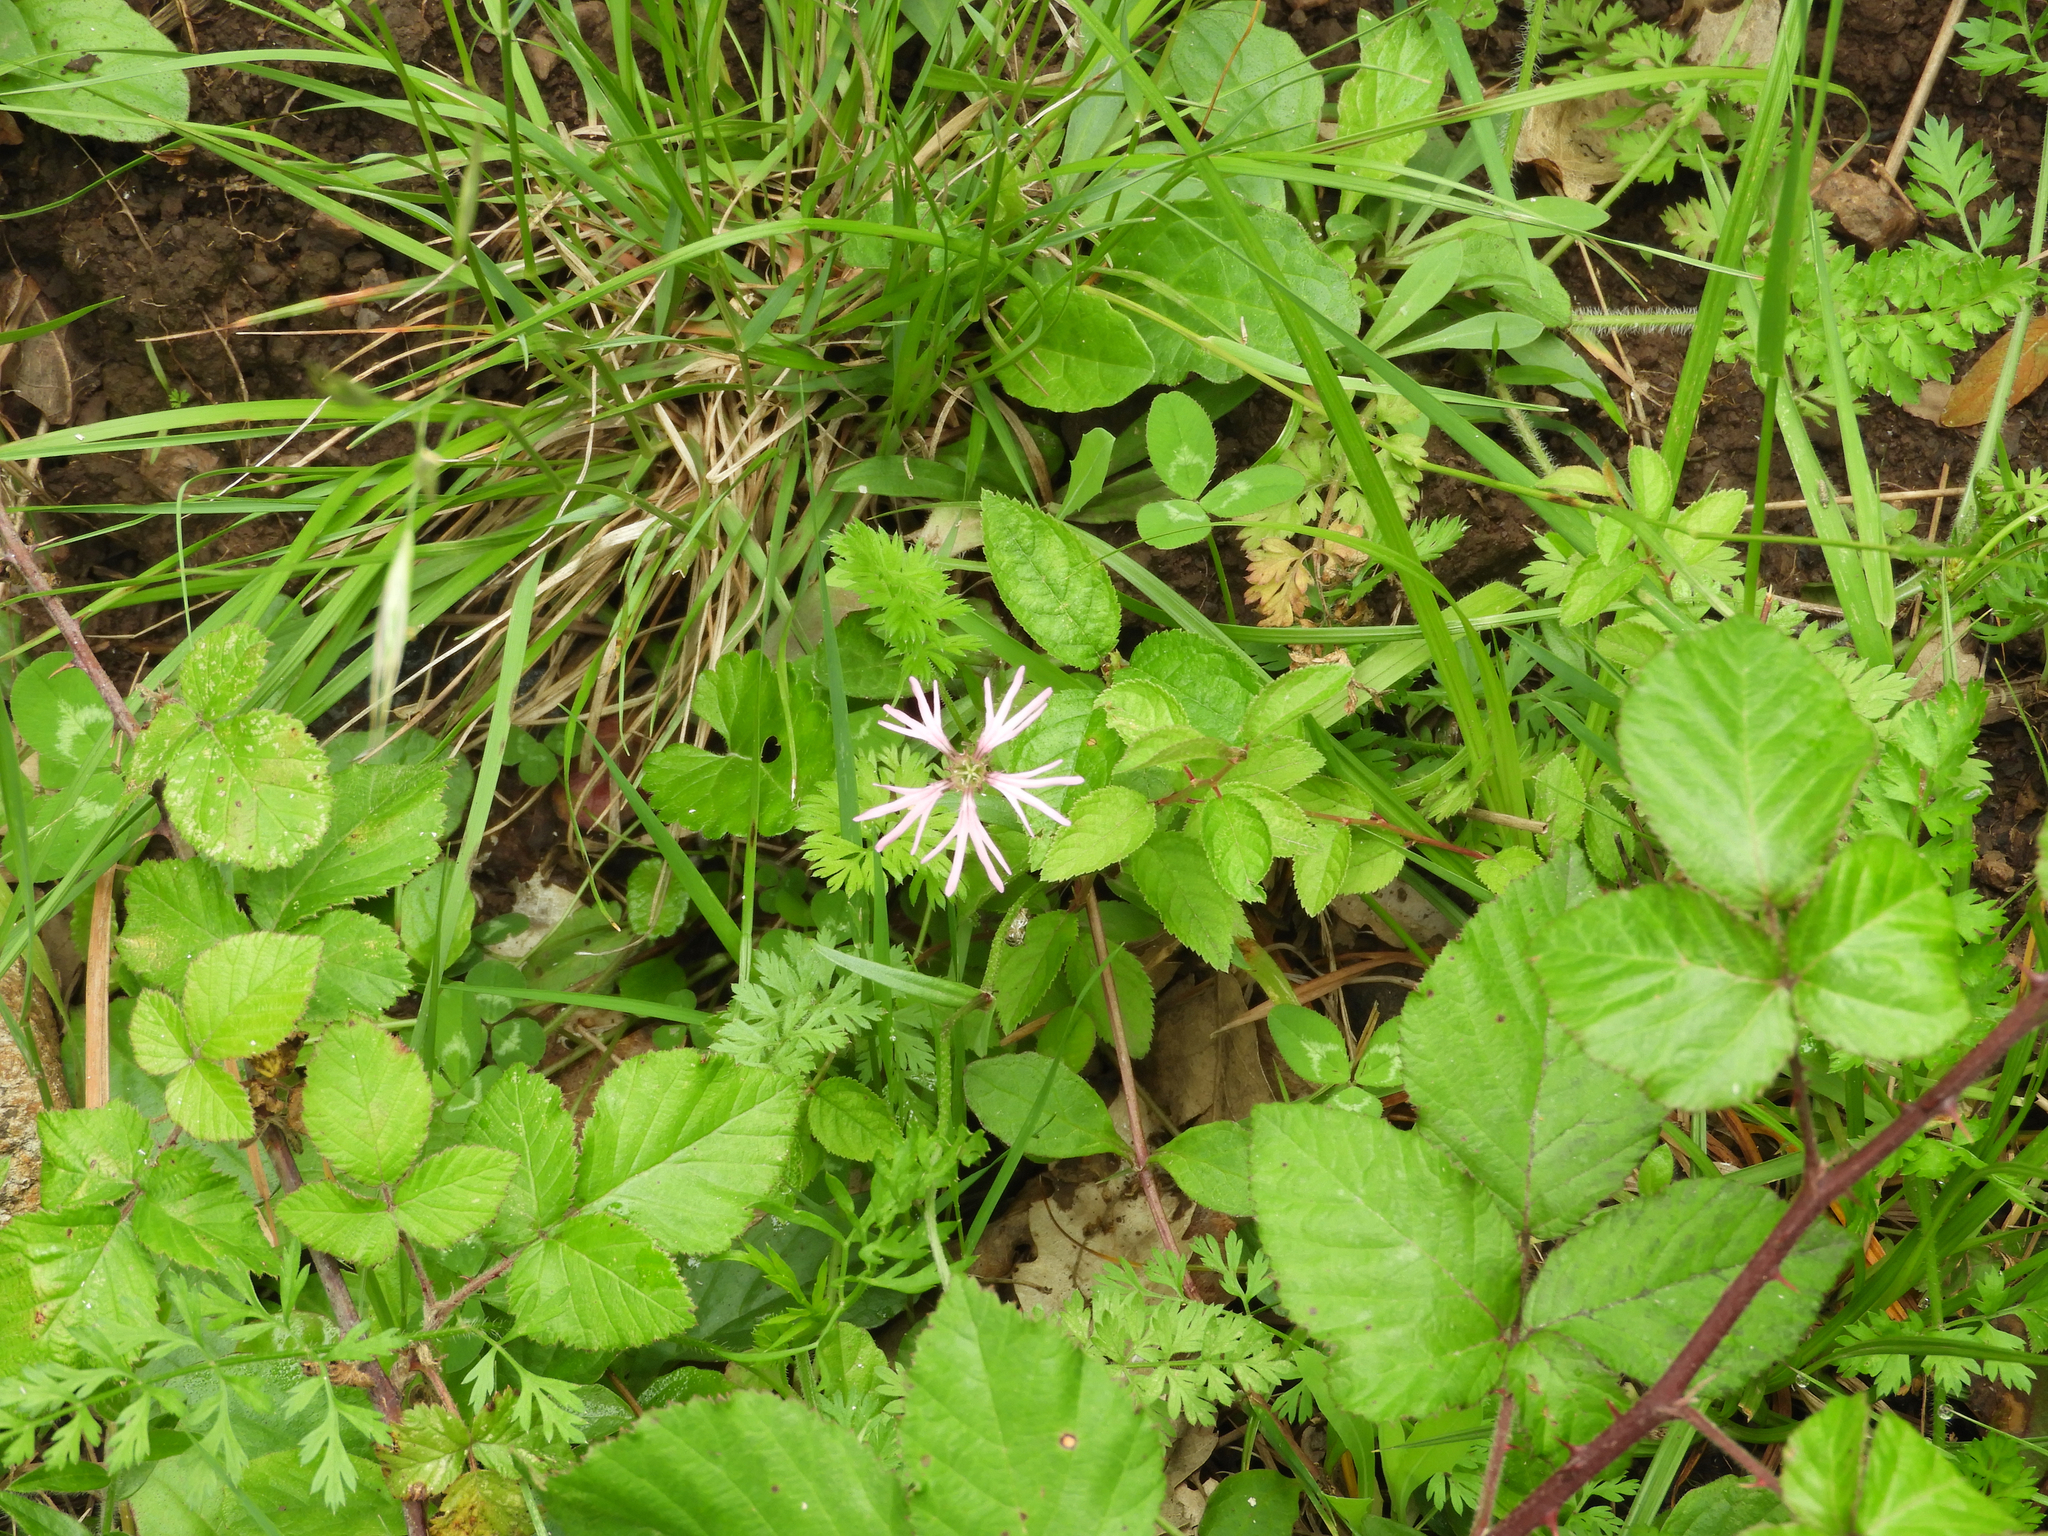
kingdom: Plantae
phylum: Tracheophyta
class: Magnoliopsida
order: Caryophyllales
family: Caryophyllaceae
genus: Silene
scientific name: Silene flos-cuculi
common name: Ragged-robin
